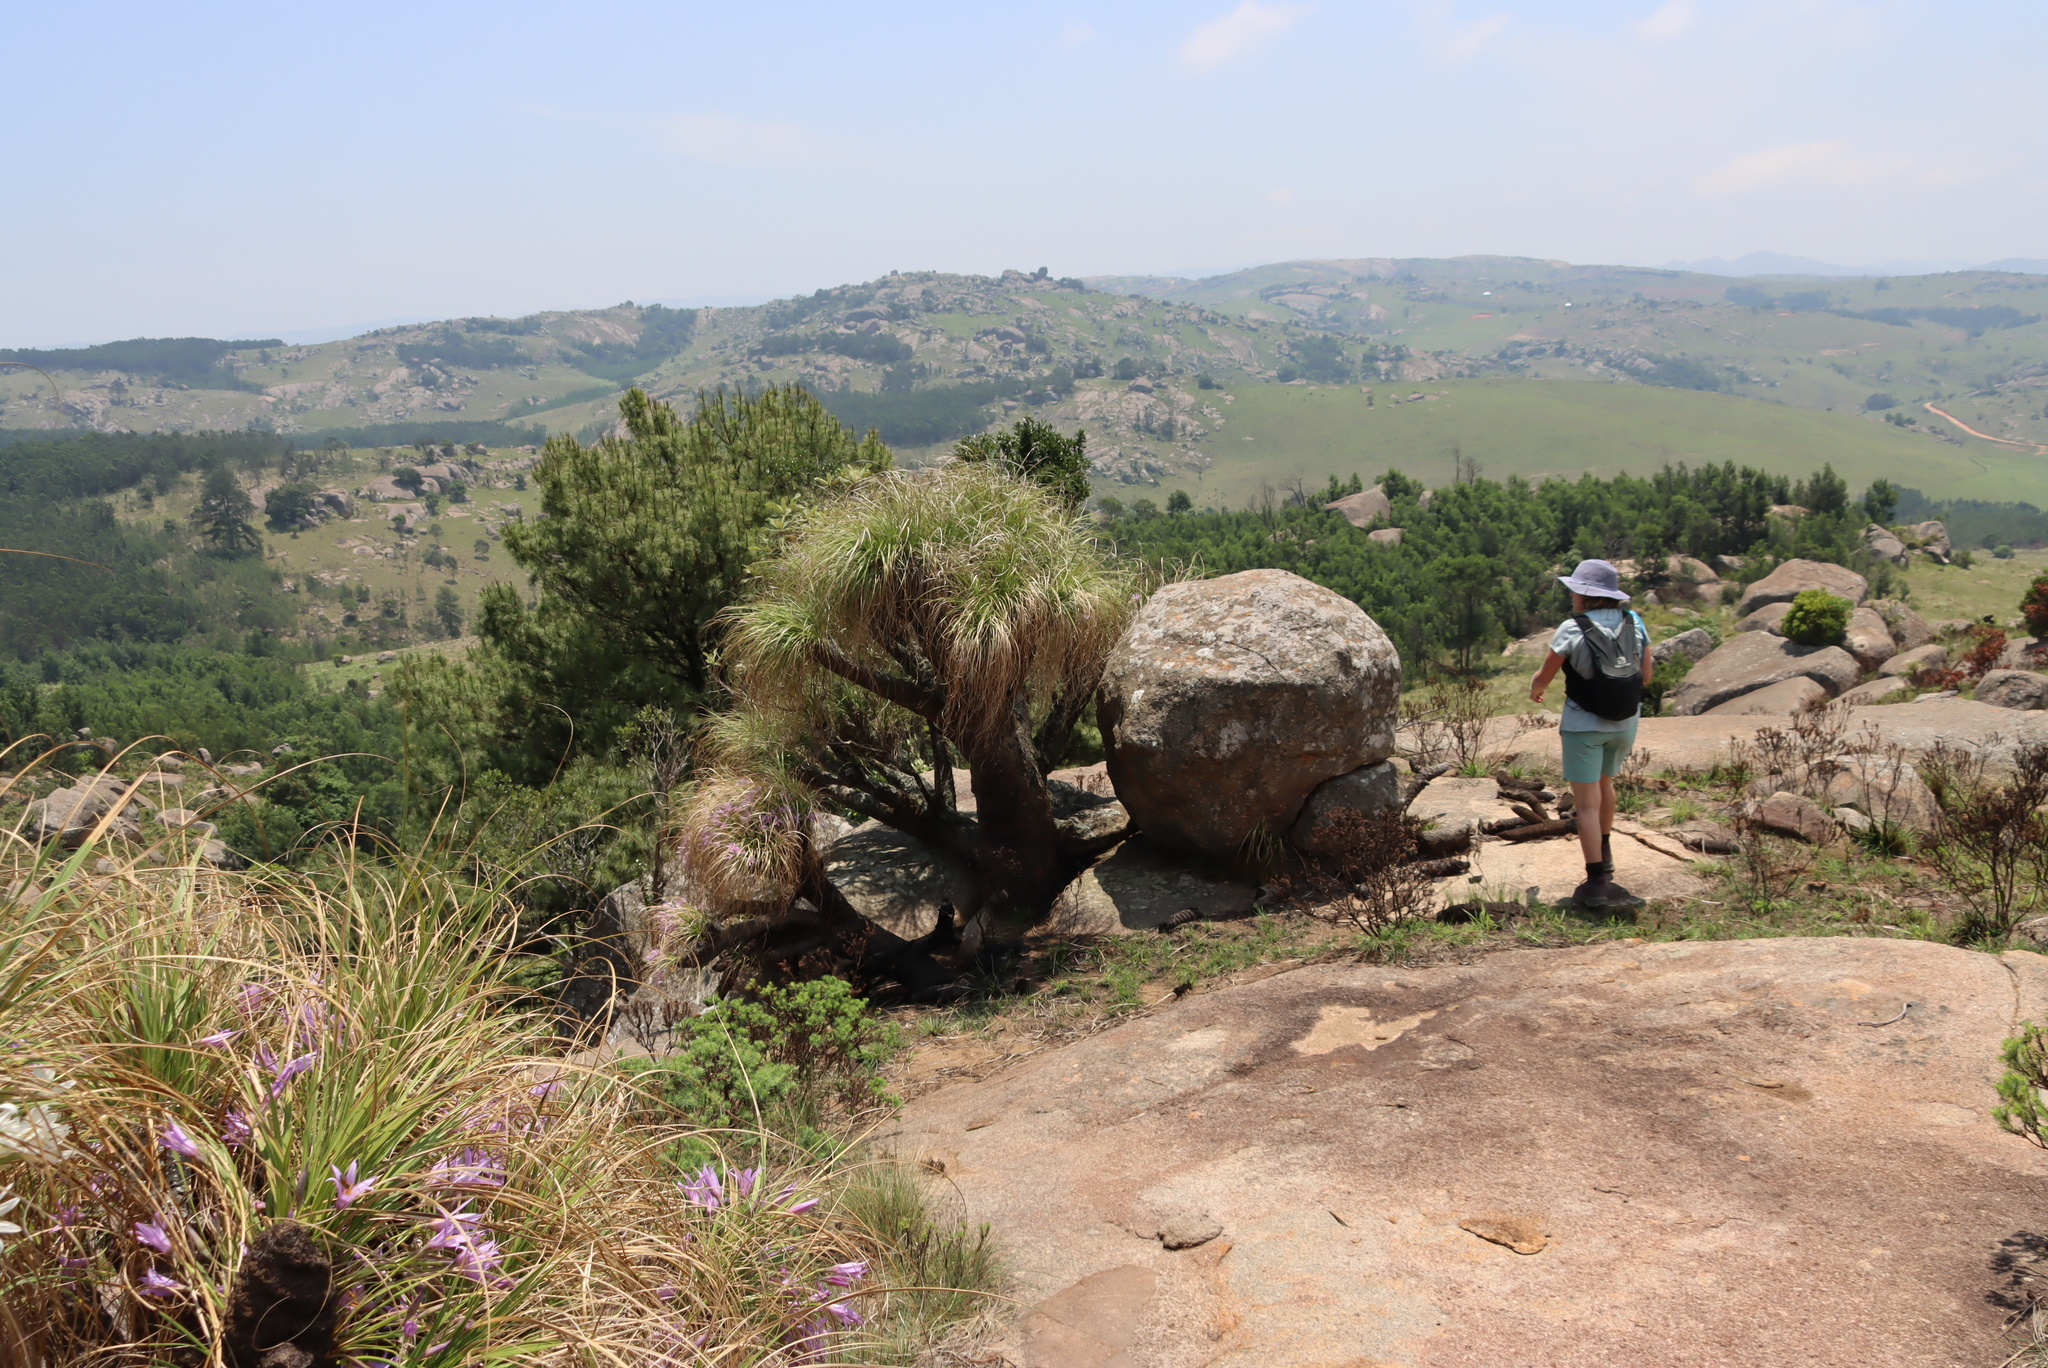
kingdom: Plantae
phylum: Tracheophyta
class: Liliopsida
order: Pandanales
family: Velloziaceae
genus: Xerophyta
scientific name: Xerophyta retinervis
